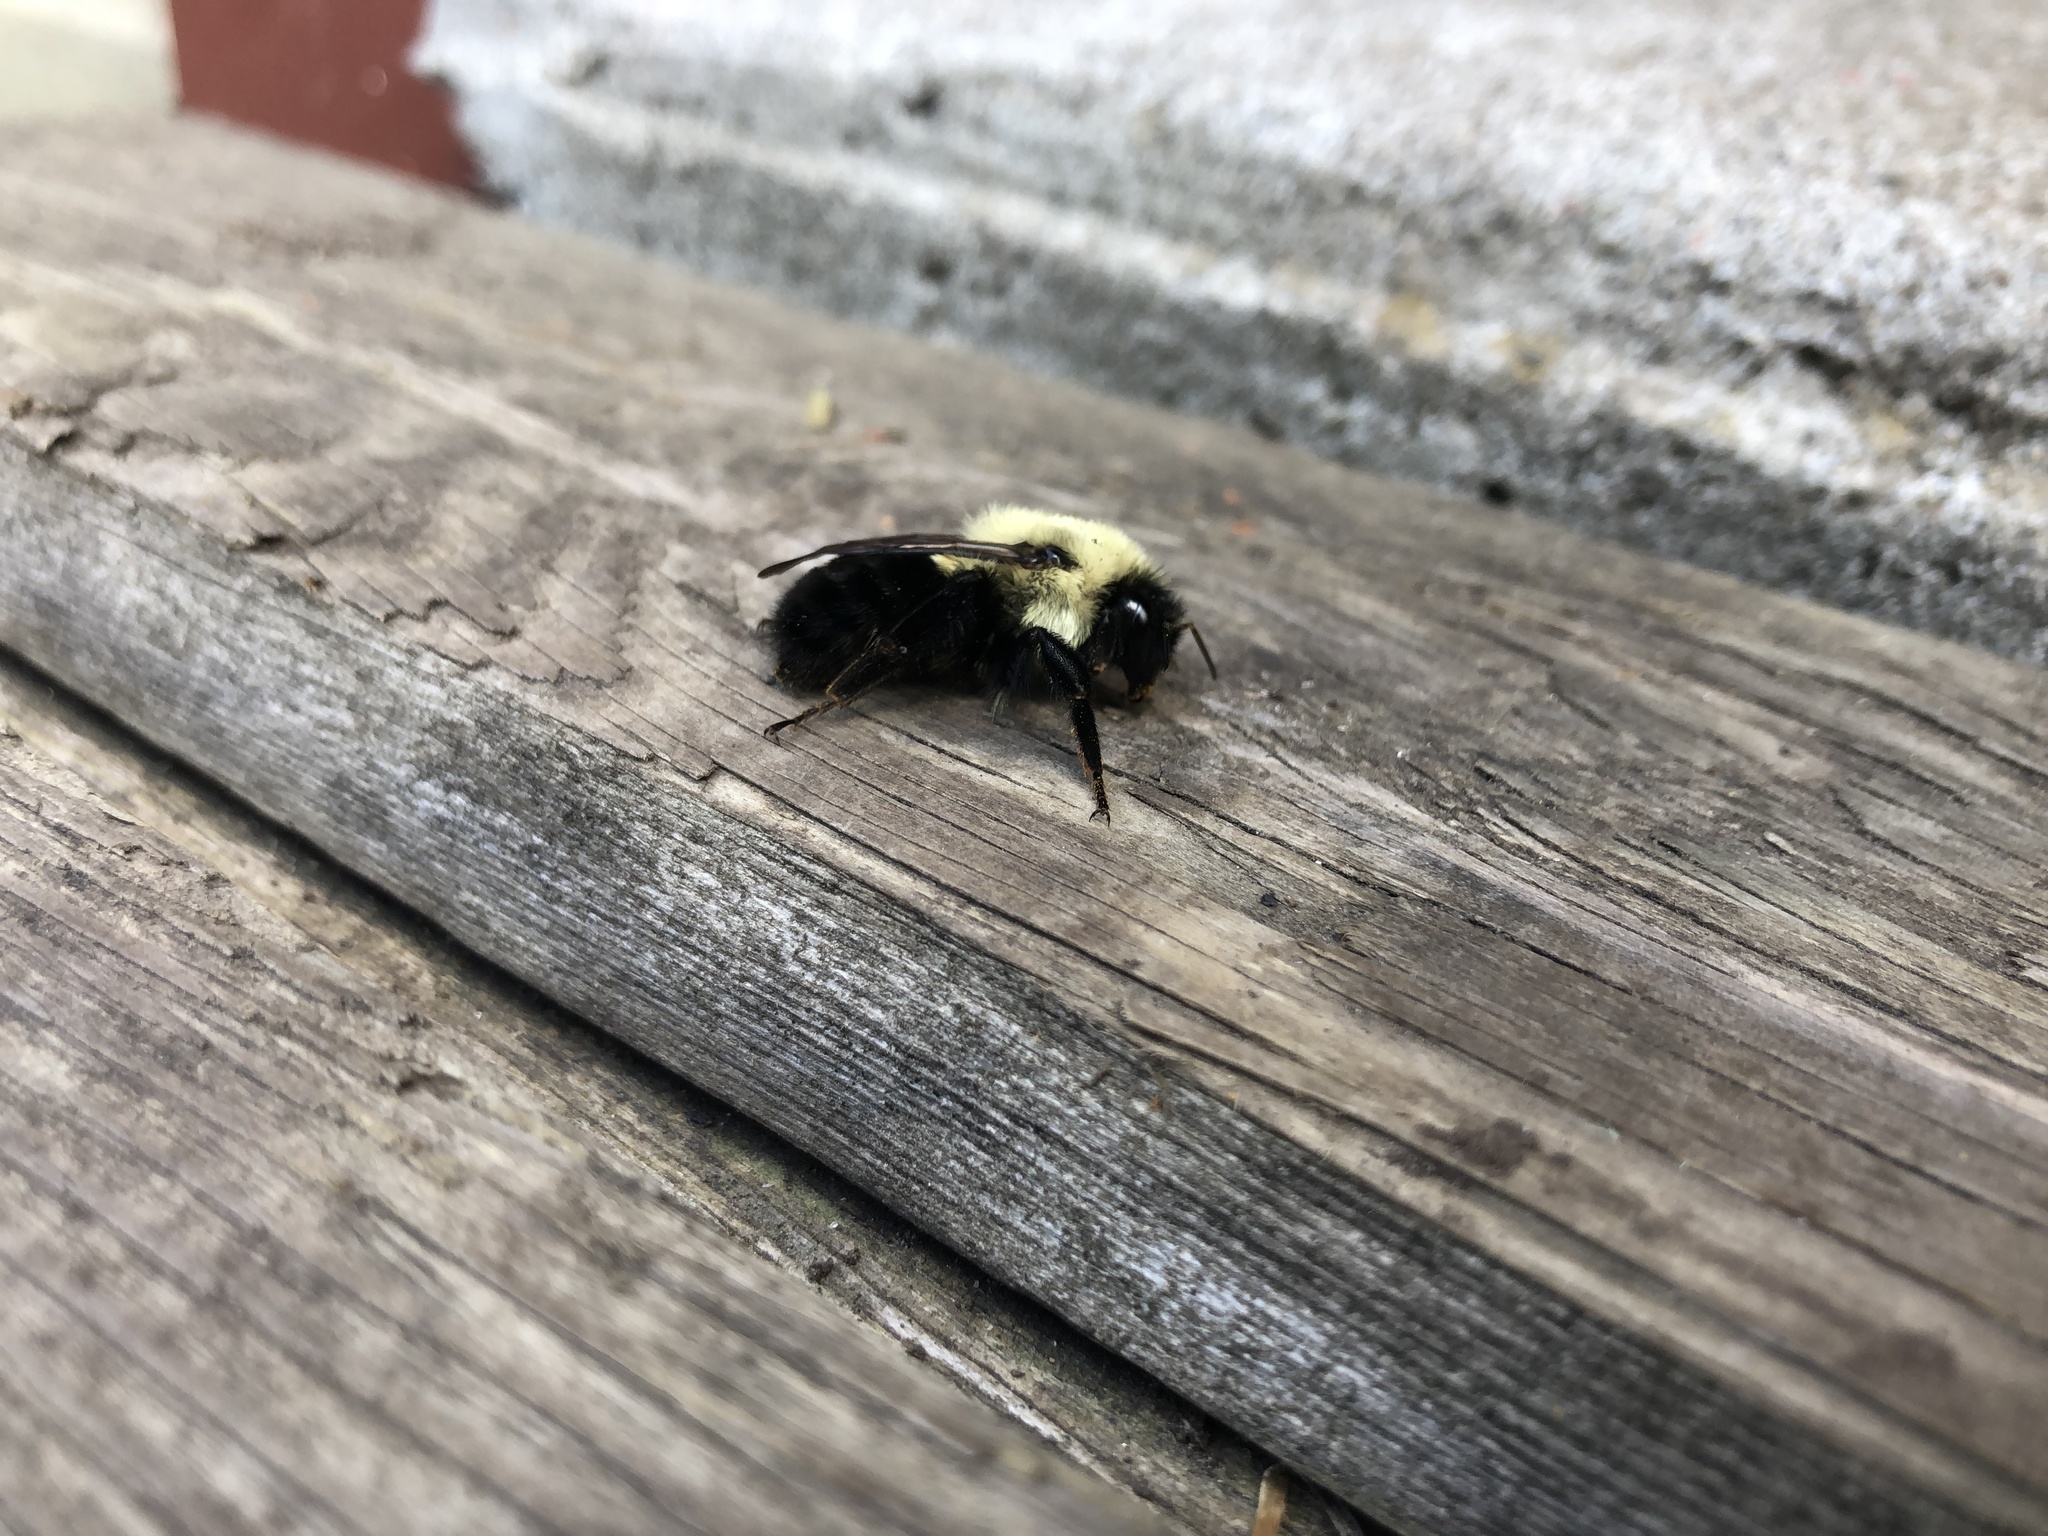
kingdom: Animalia
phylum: Arthropoda
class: Insecta
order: Hymenoptera
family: Apidae
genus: Bombus
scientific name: Bombus impatiens
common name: Common eastern bumble bee
